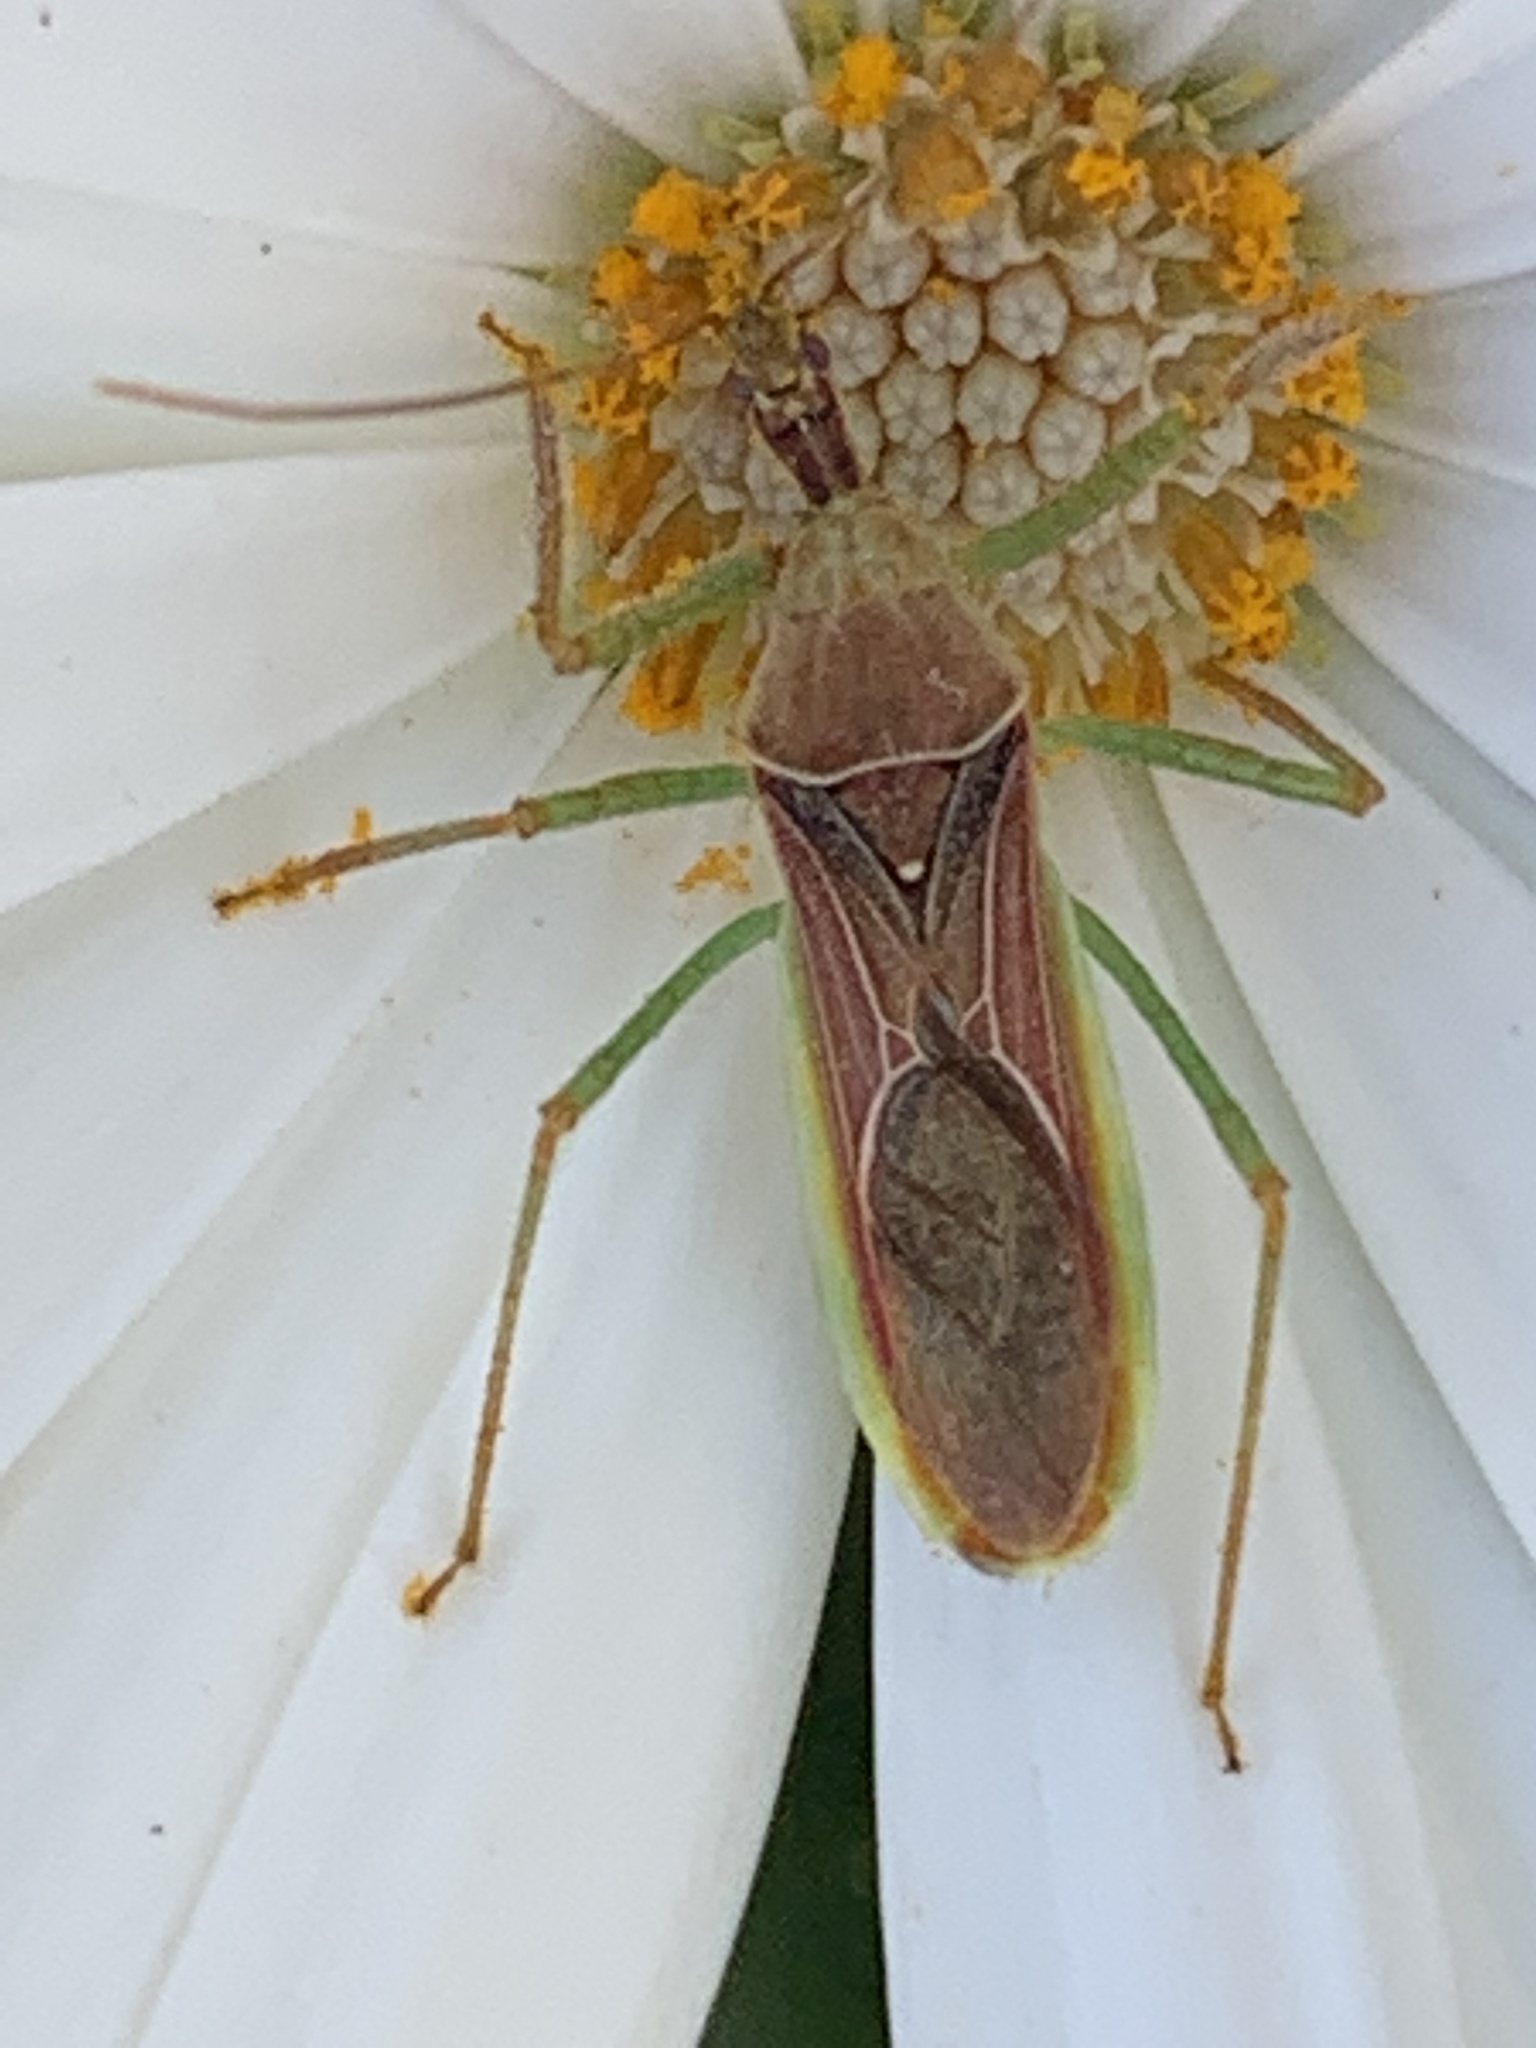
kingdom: Animalia
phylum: Arthropoda
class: Insecta
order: Hemiptera
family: Reduviidae
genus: Zelus
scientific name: Zelus renardii
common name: Assassin bug
